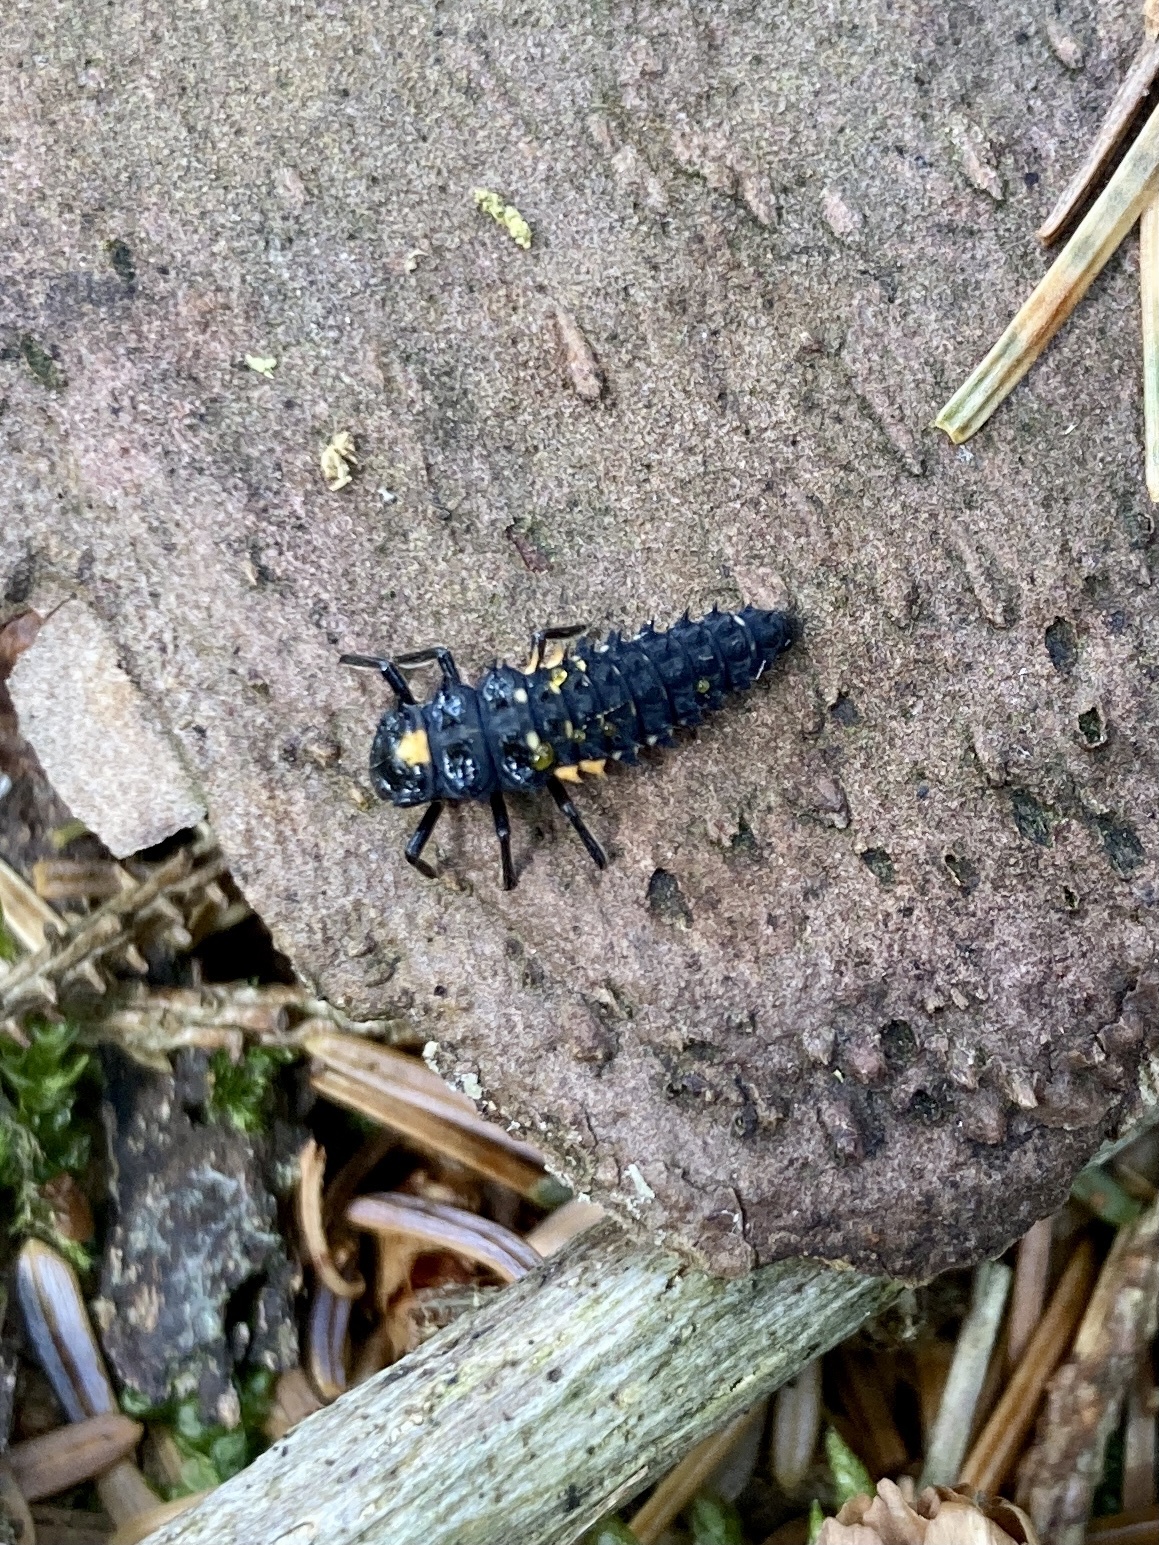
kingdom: Animalia
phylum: Arthropoda
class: Insecta
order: Coleoptera
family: Coccinellidae
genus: Anatis
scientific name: Anatis ocellata
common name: Eyed ladybird
